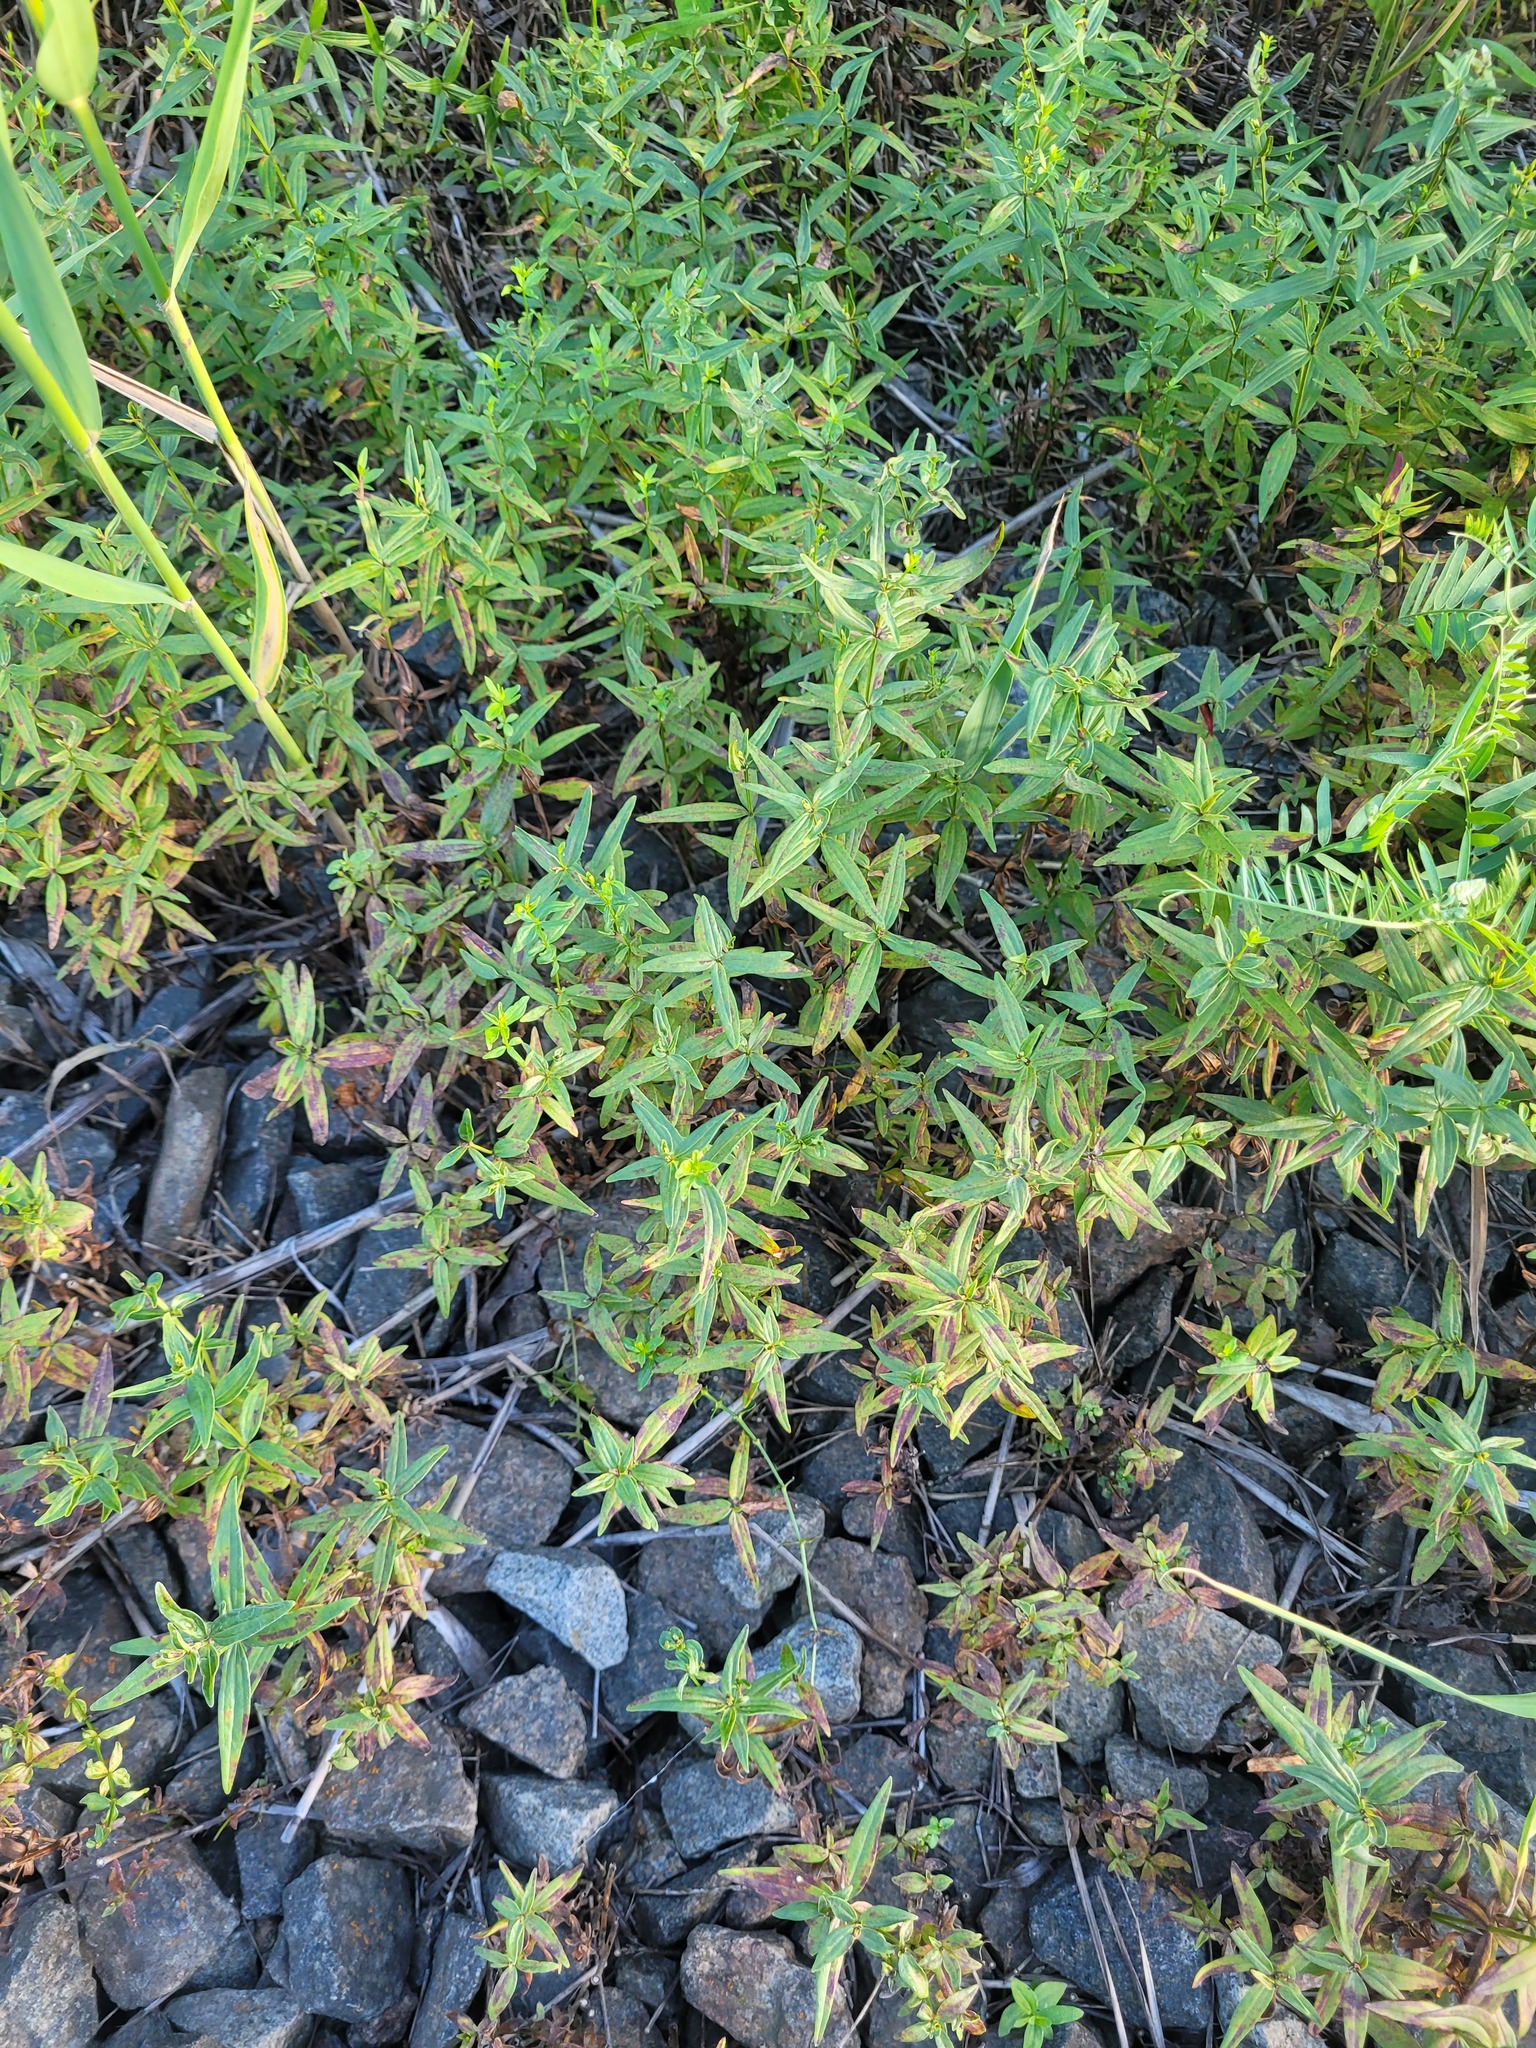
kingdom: Plantae
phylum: Tracheophyta
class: Magnoliopsida
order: Gentianales
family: Rubiaceae
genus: Galium
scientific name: Galium boreale
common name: Northern bedstraw
